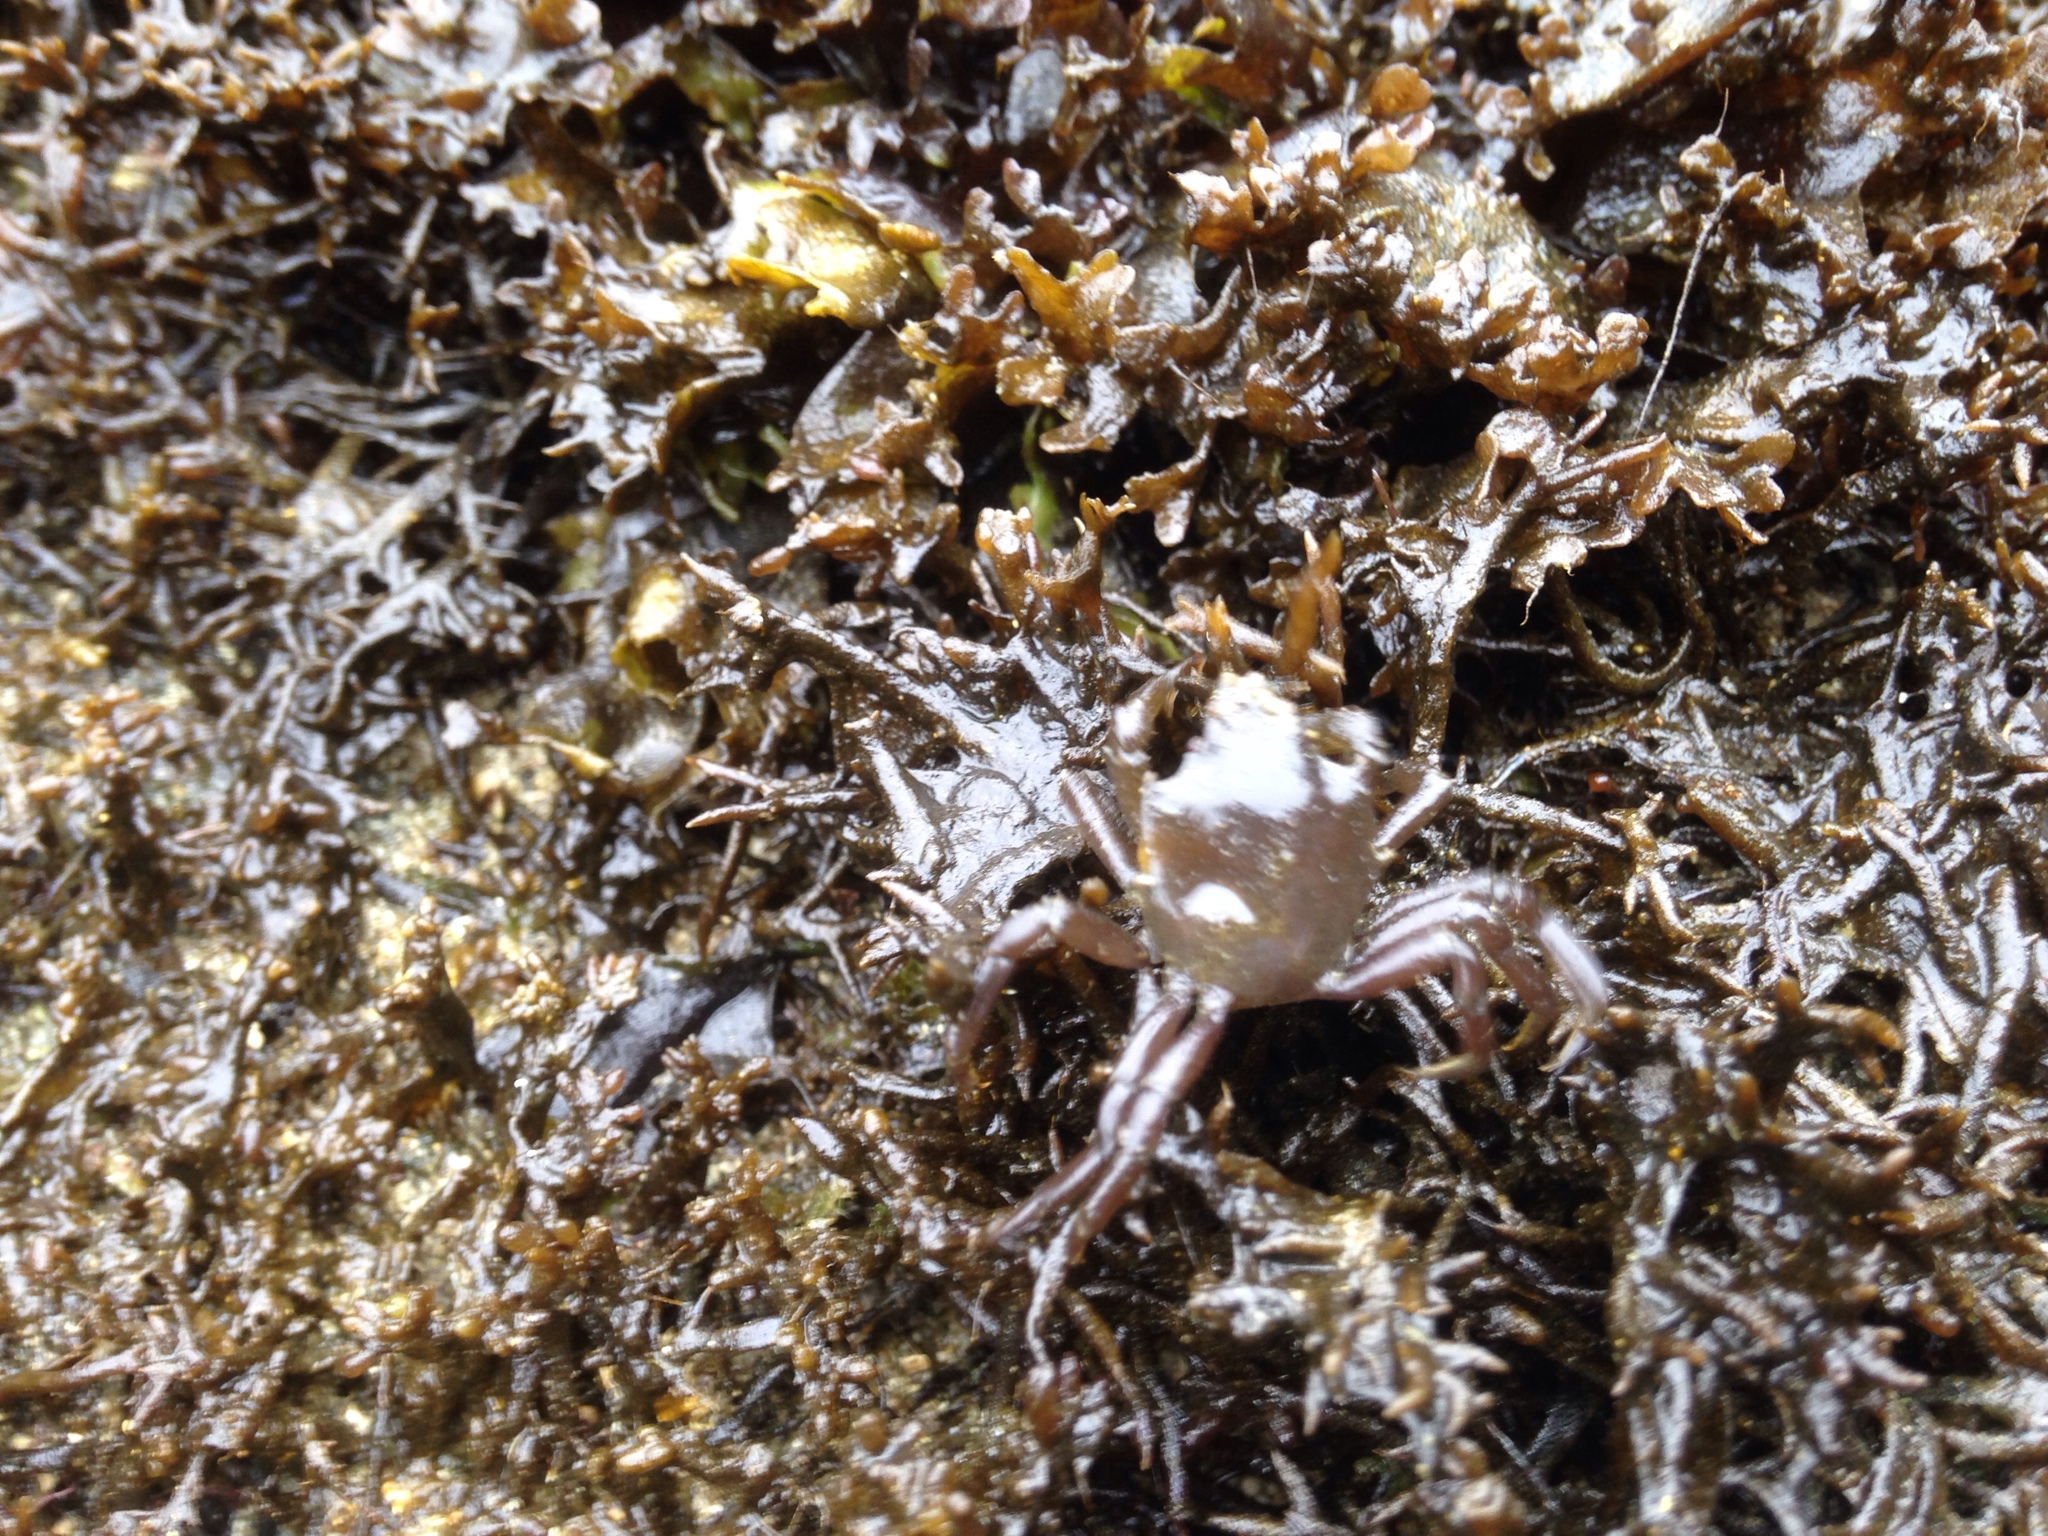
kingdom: Animalia
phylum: Arthropoda
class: Malacostraca
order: Decapoda
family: Epialtidae
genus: Pugettia
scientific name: Pugettia producta
